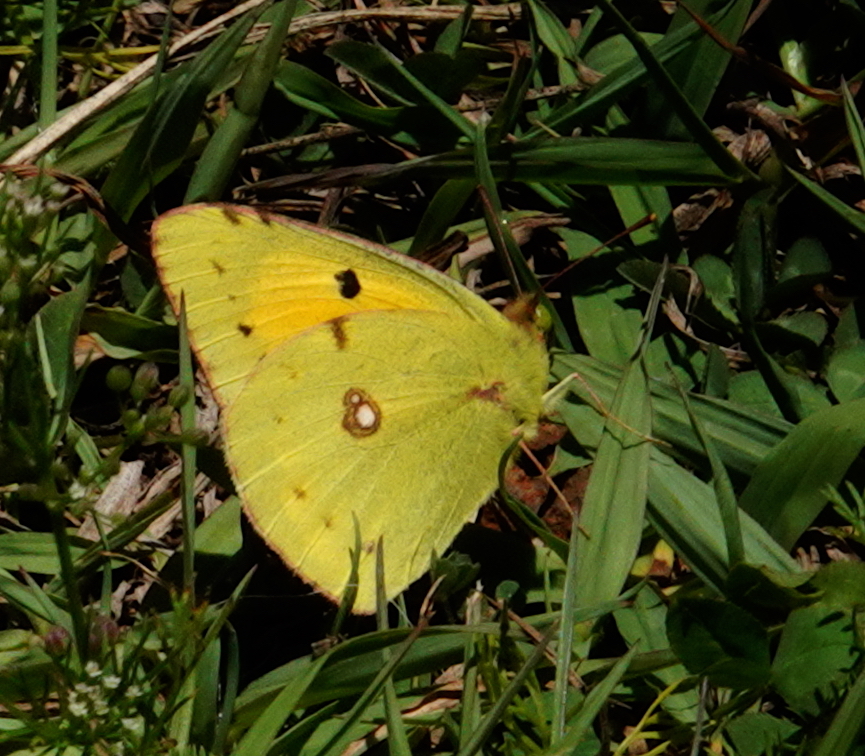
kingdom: Animalia
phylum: Arthropoda
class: Insecta
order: Lepidoptera
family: Pieridae
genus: Colias
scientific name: Colias croceus
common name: Clouded yellow
